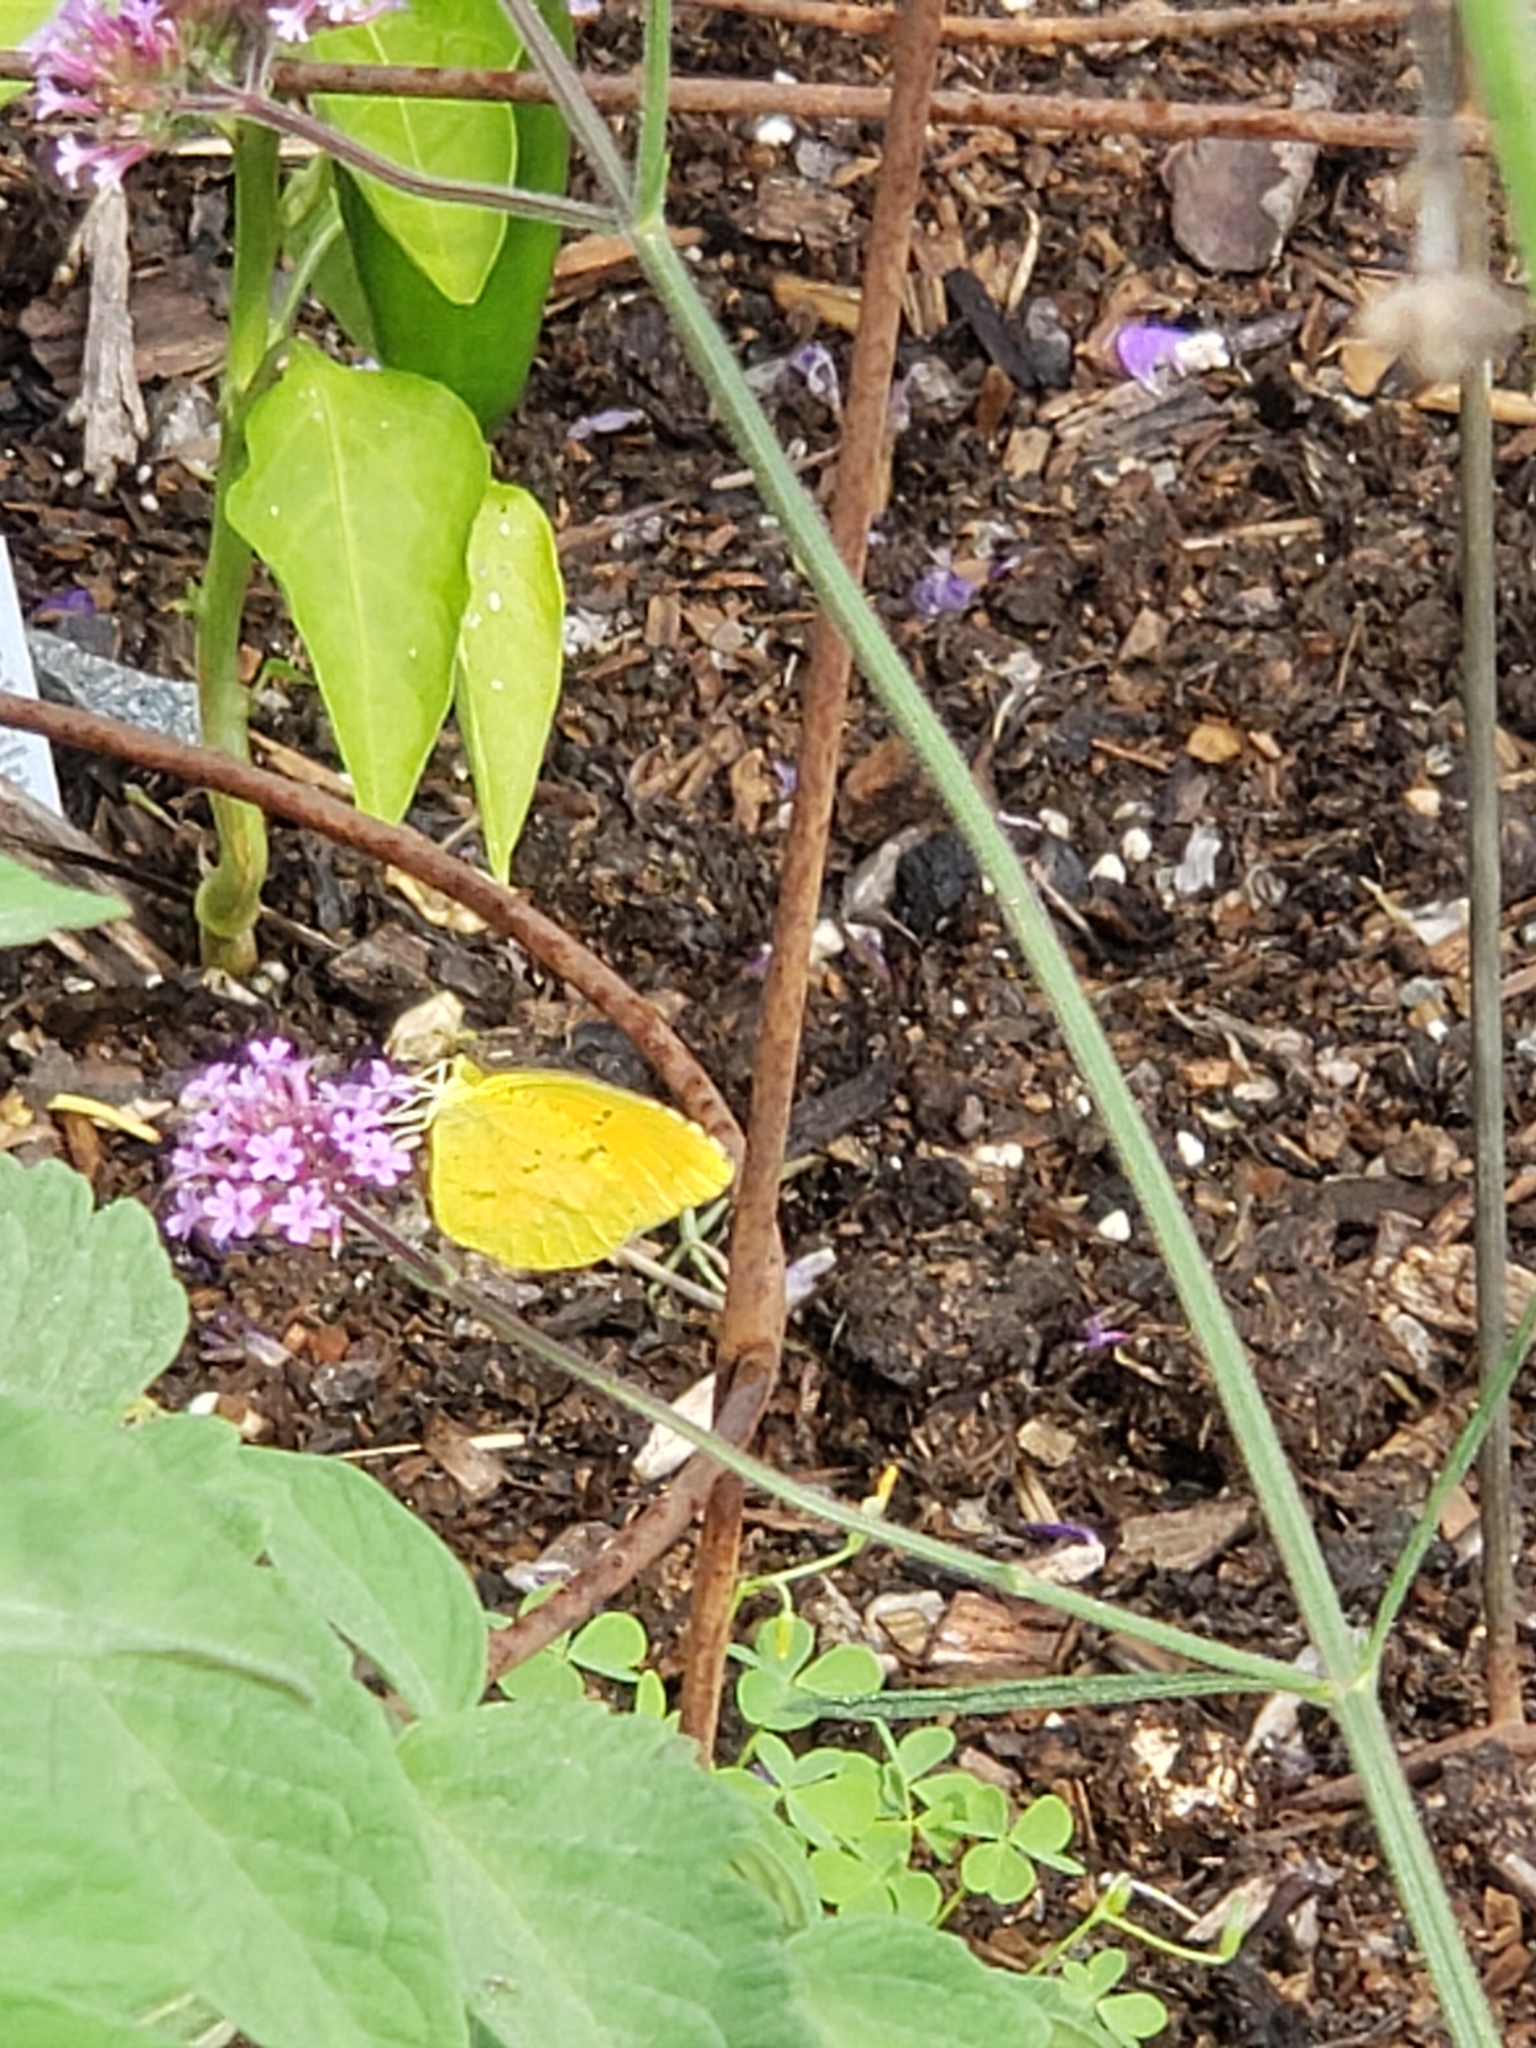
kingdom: Animalia
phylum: Arthropoda
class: Insecta
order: Lepidoptera
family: Pieridae
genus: Abaeis
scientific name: Abaeis nicippe
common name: Sleepy orange
